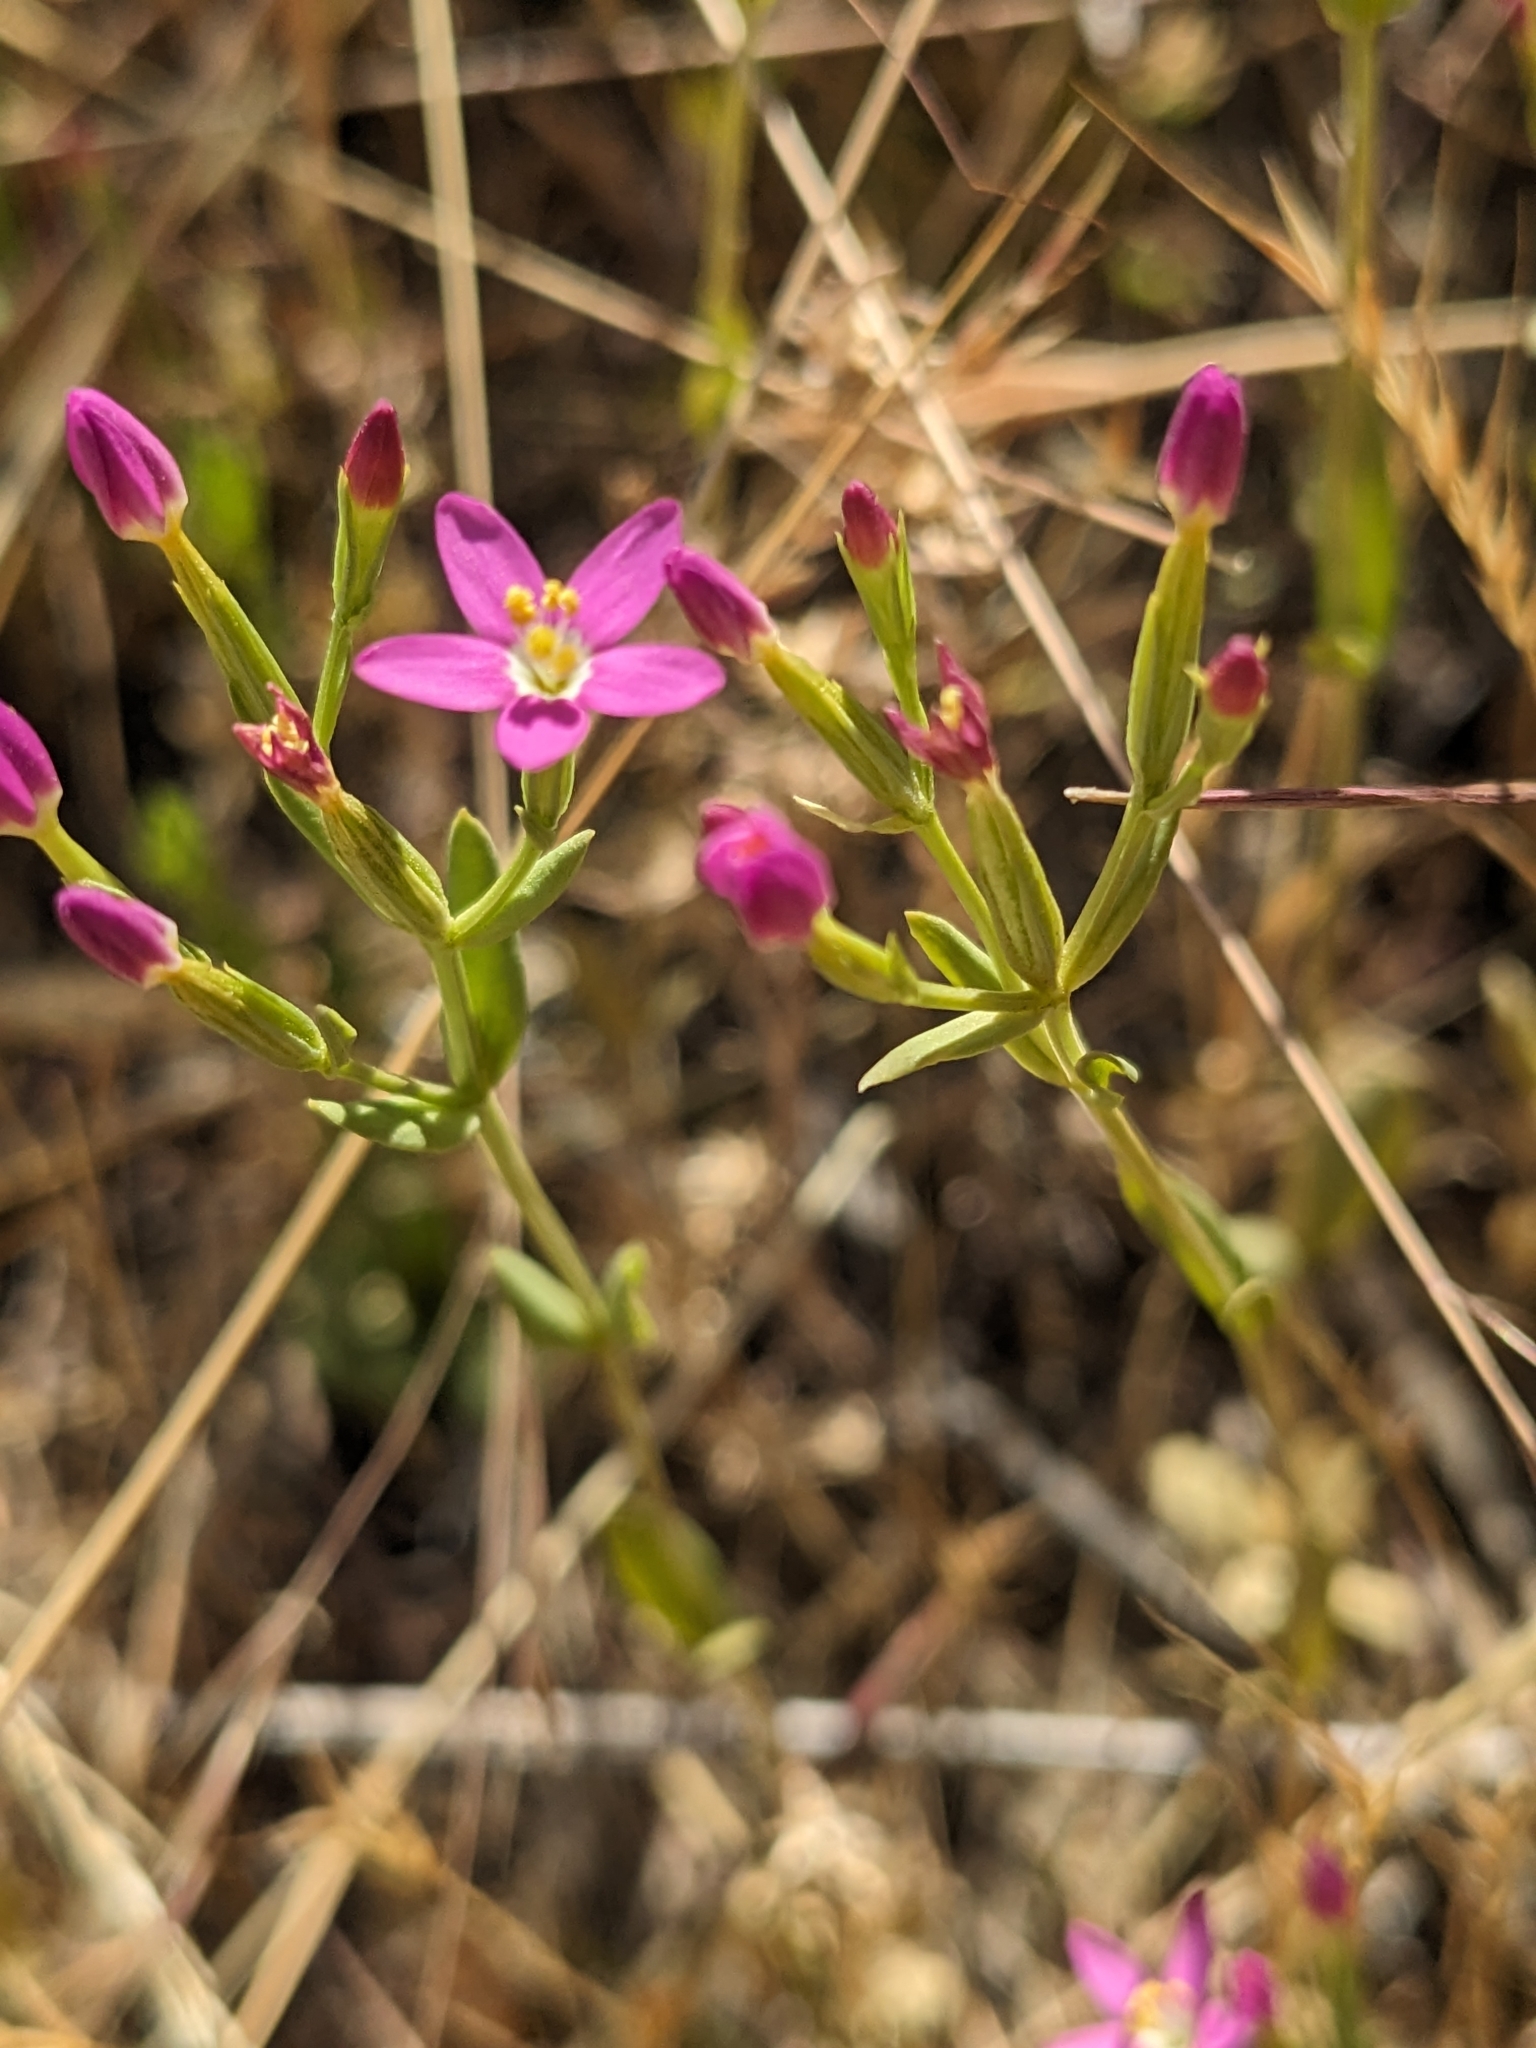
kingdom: Plantae
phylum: Tracheophyta
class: Magnoliopsida
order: Gentianales
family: Gentianaceae
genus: Zeltnera
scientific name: Zeltnera muhlenbergii
